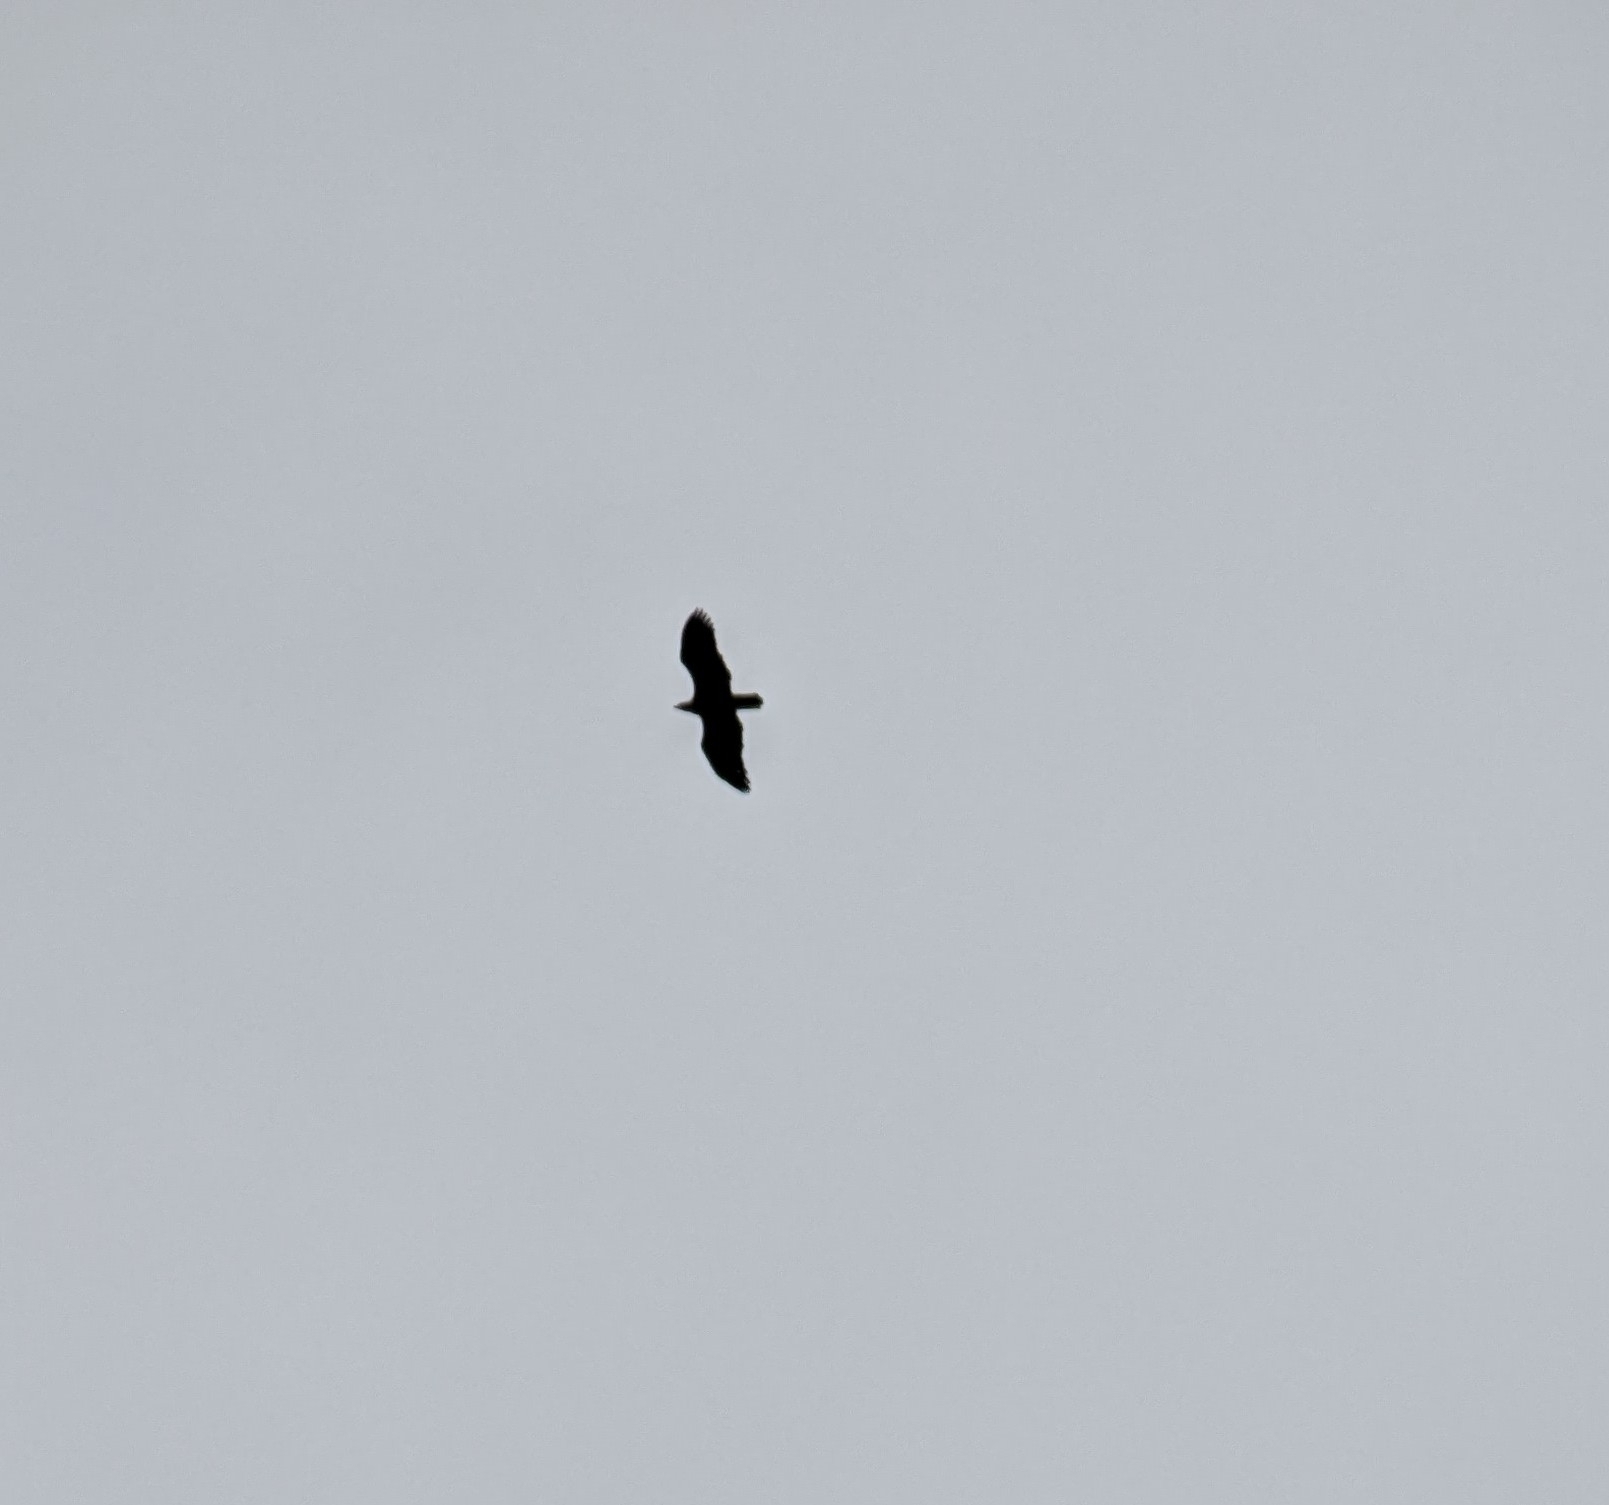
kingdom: Animalia
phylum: Chordata
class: Aves
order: Accipitriformes
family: Accipitridae
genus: Haliaeetus
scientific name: Haliaeetus leucocephalus
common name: Bald eagle
